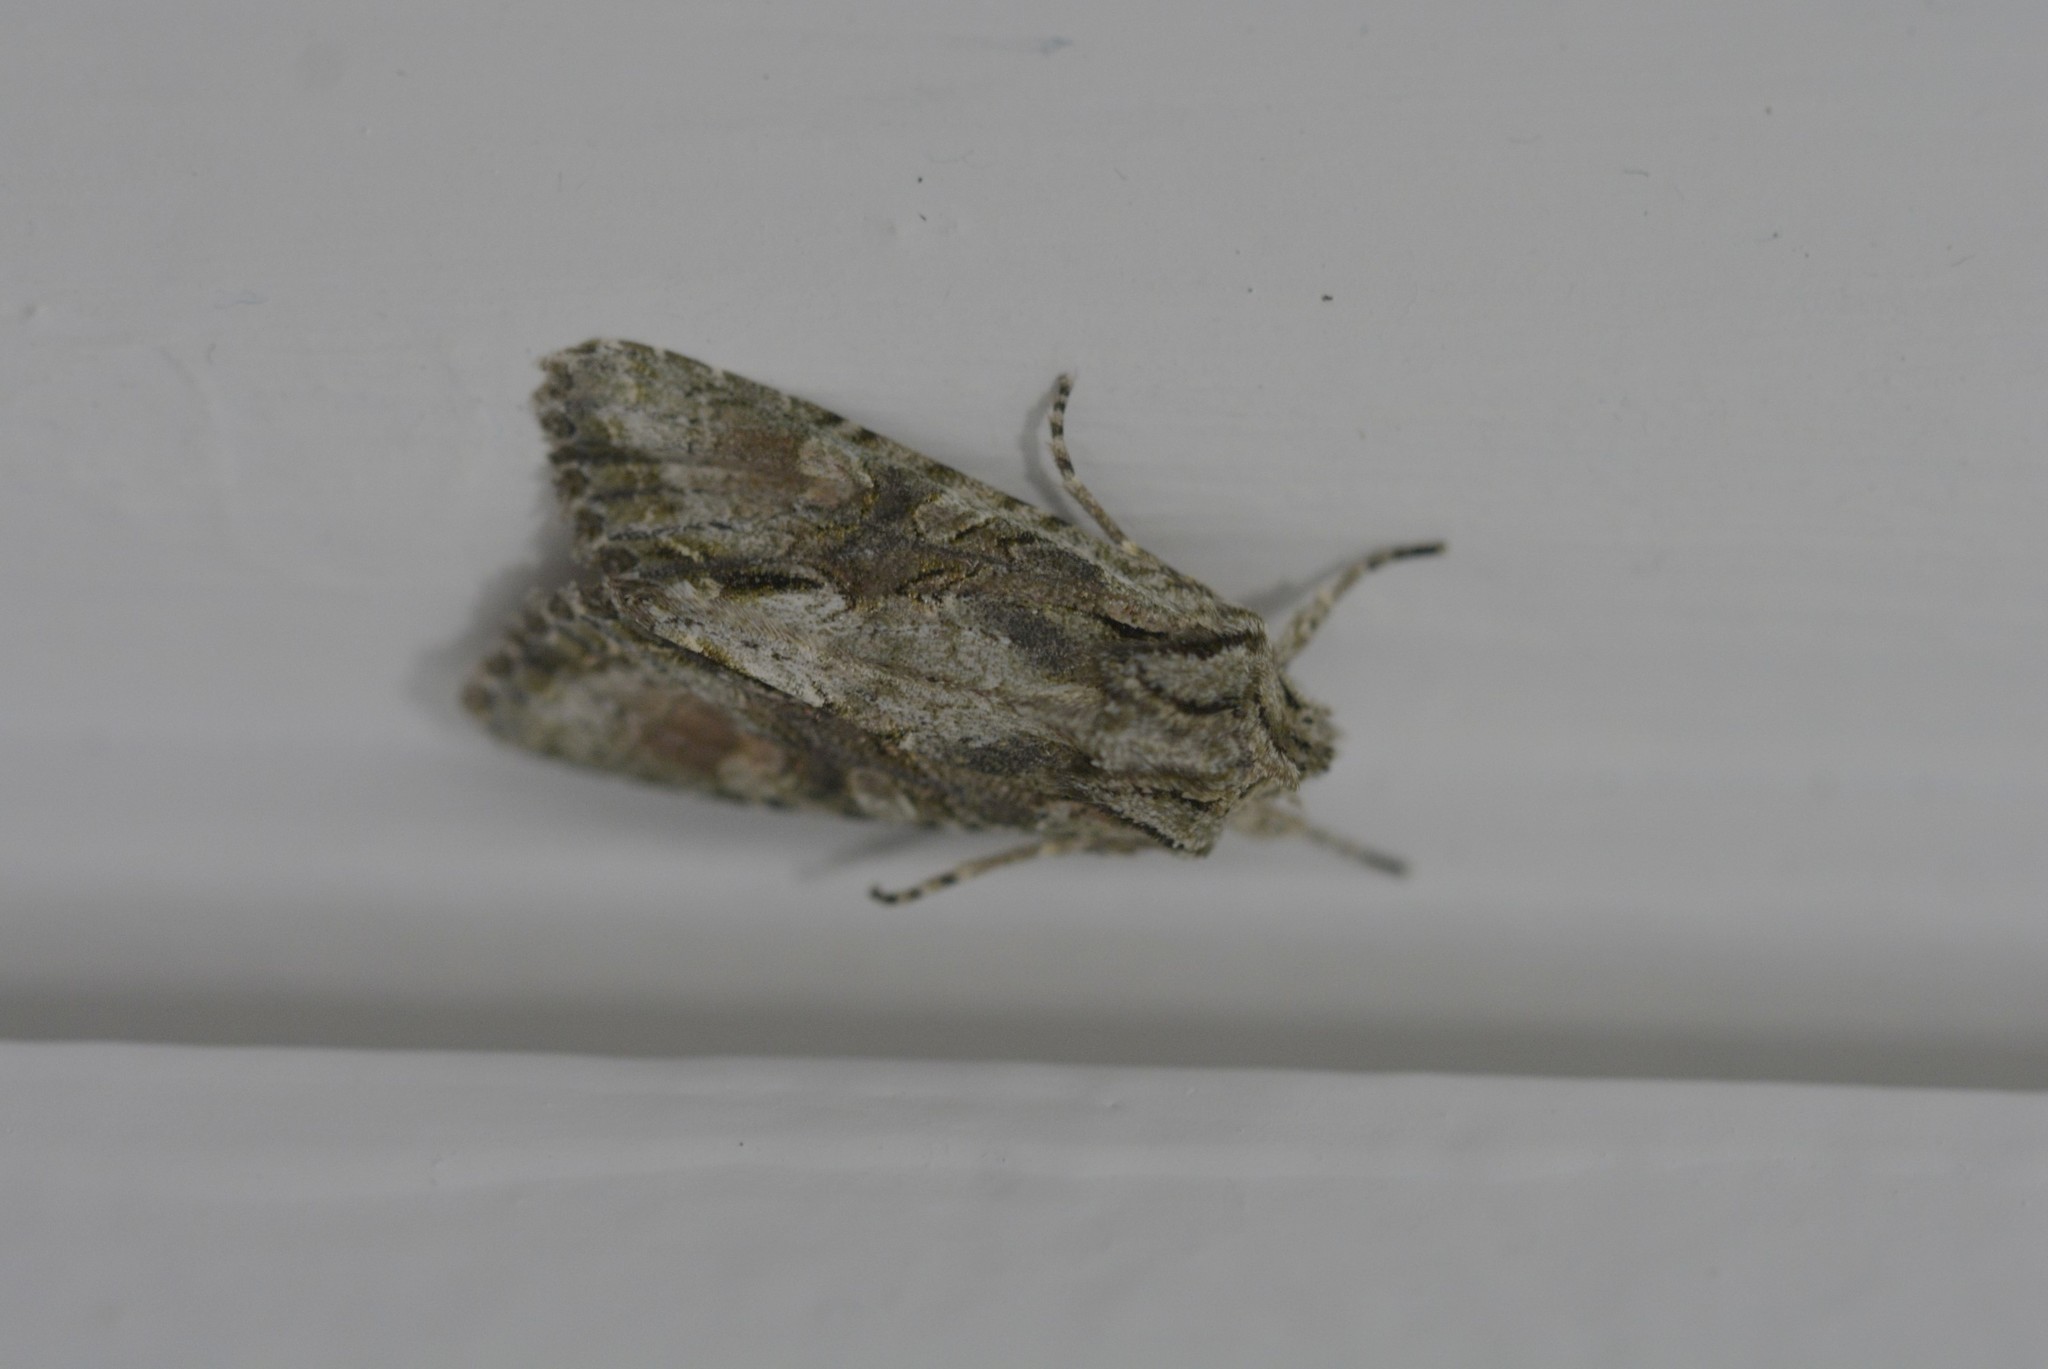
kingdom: Animalia
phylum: Arthropoda
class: Insecta
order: Lepidoptera
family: Noctuidae
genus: Ichneutica
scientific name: Ichneutica mutans
